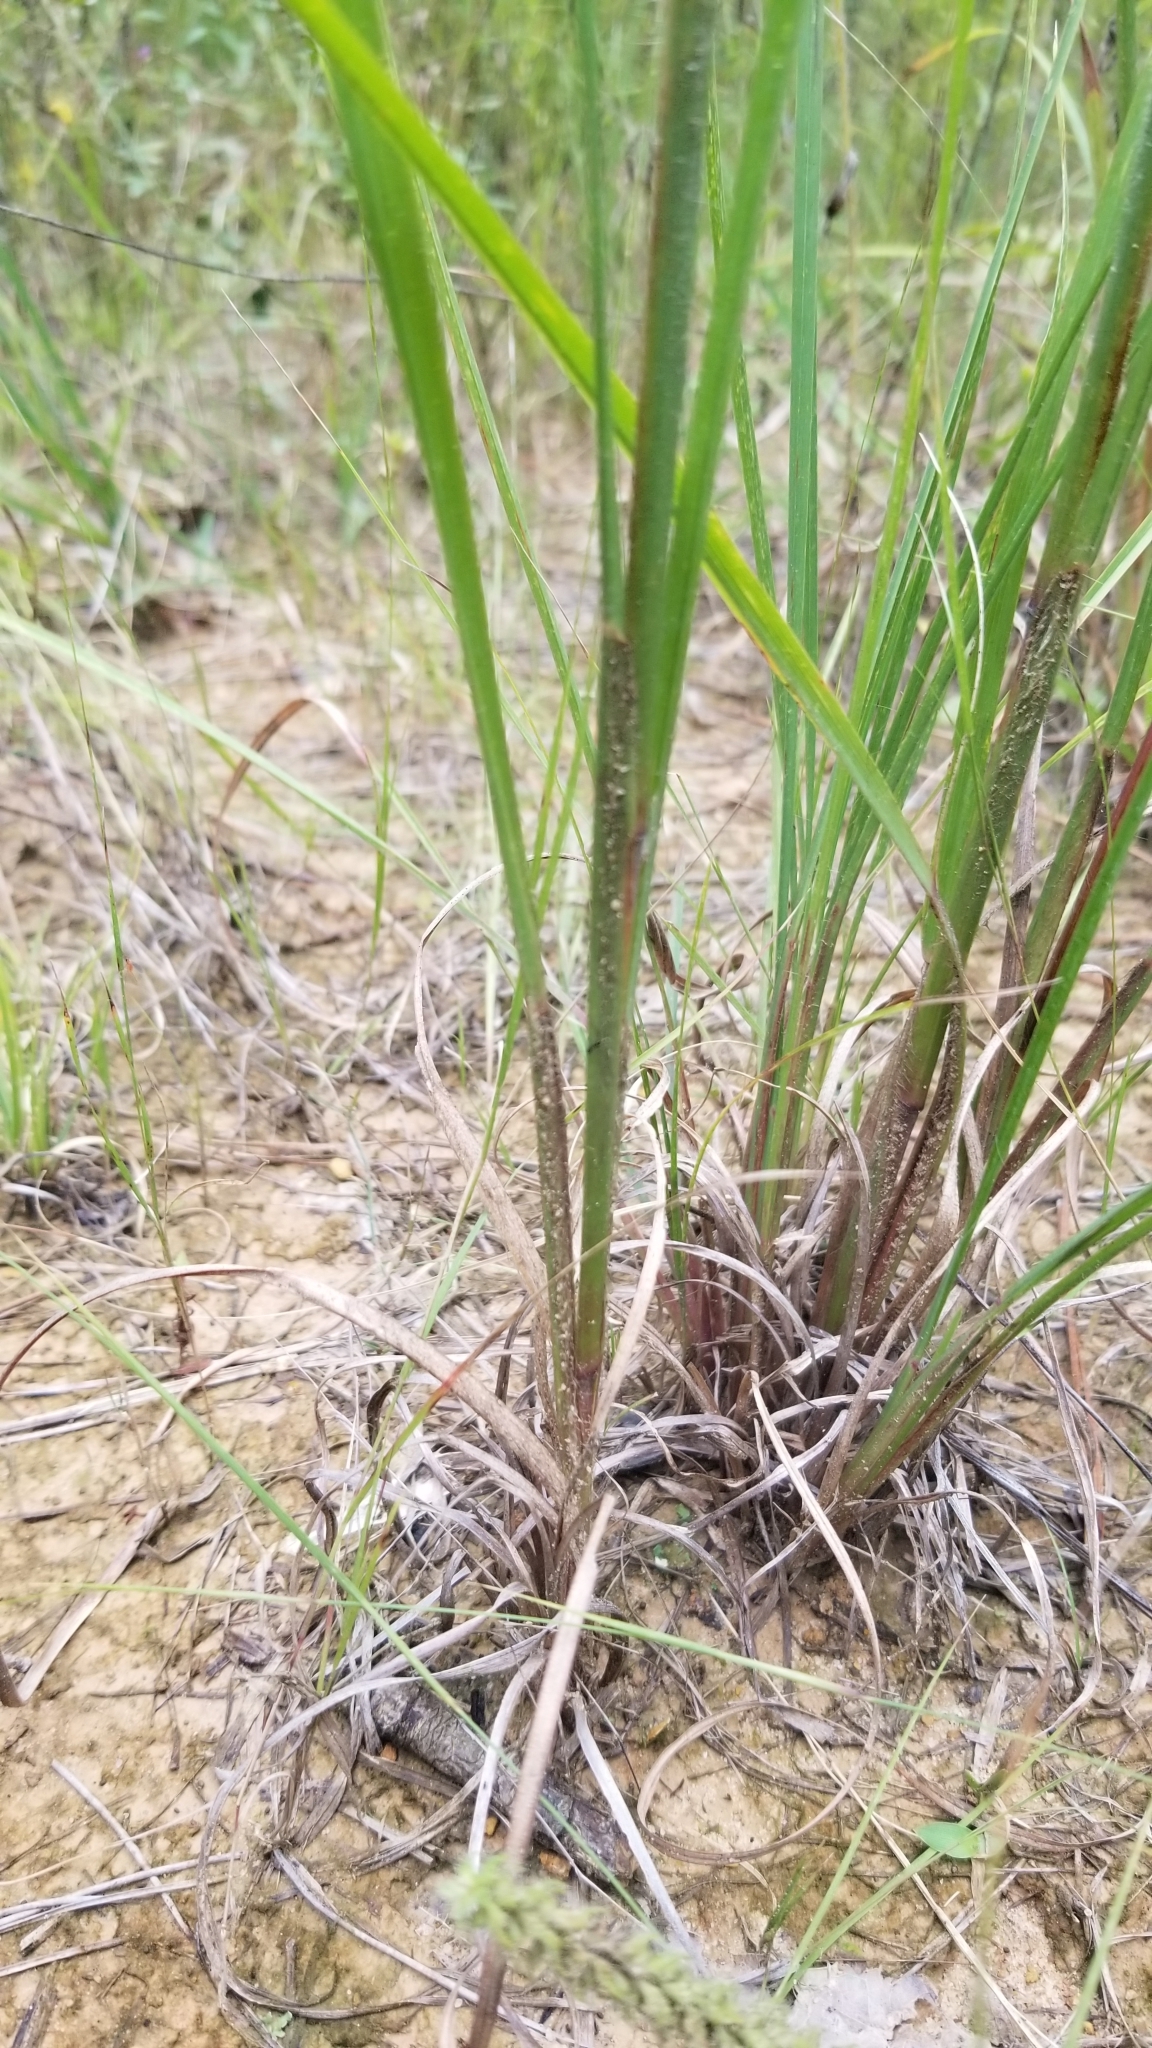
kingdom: Plantae
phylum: Tracheophyta
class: Liliopsida
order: Poales
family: Poaceae
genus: Schizachyrium
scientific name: Schizachyrium scoparium
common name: Little bluestem
